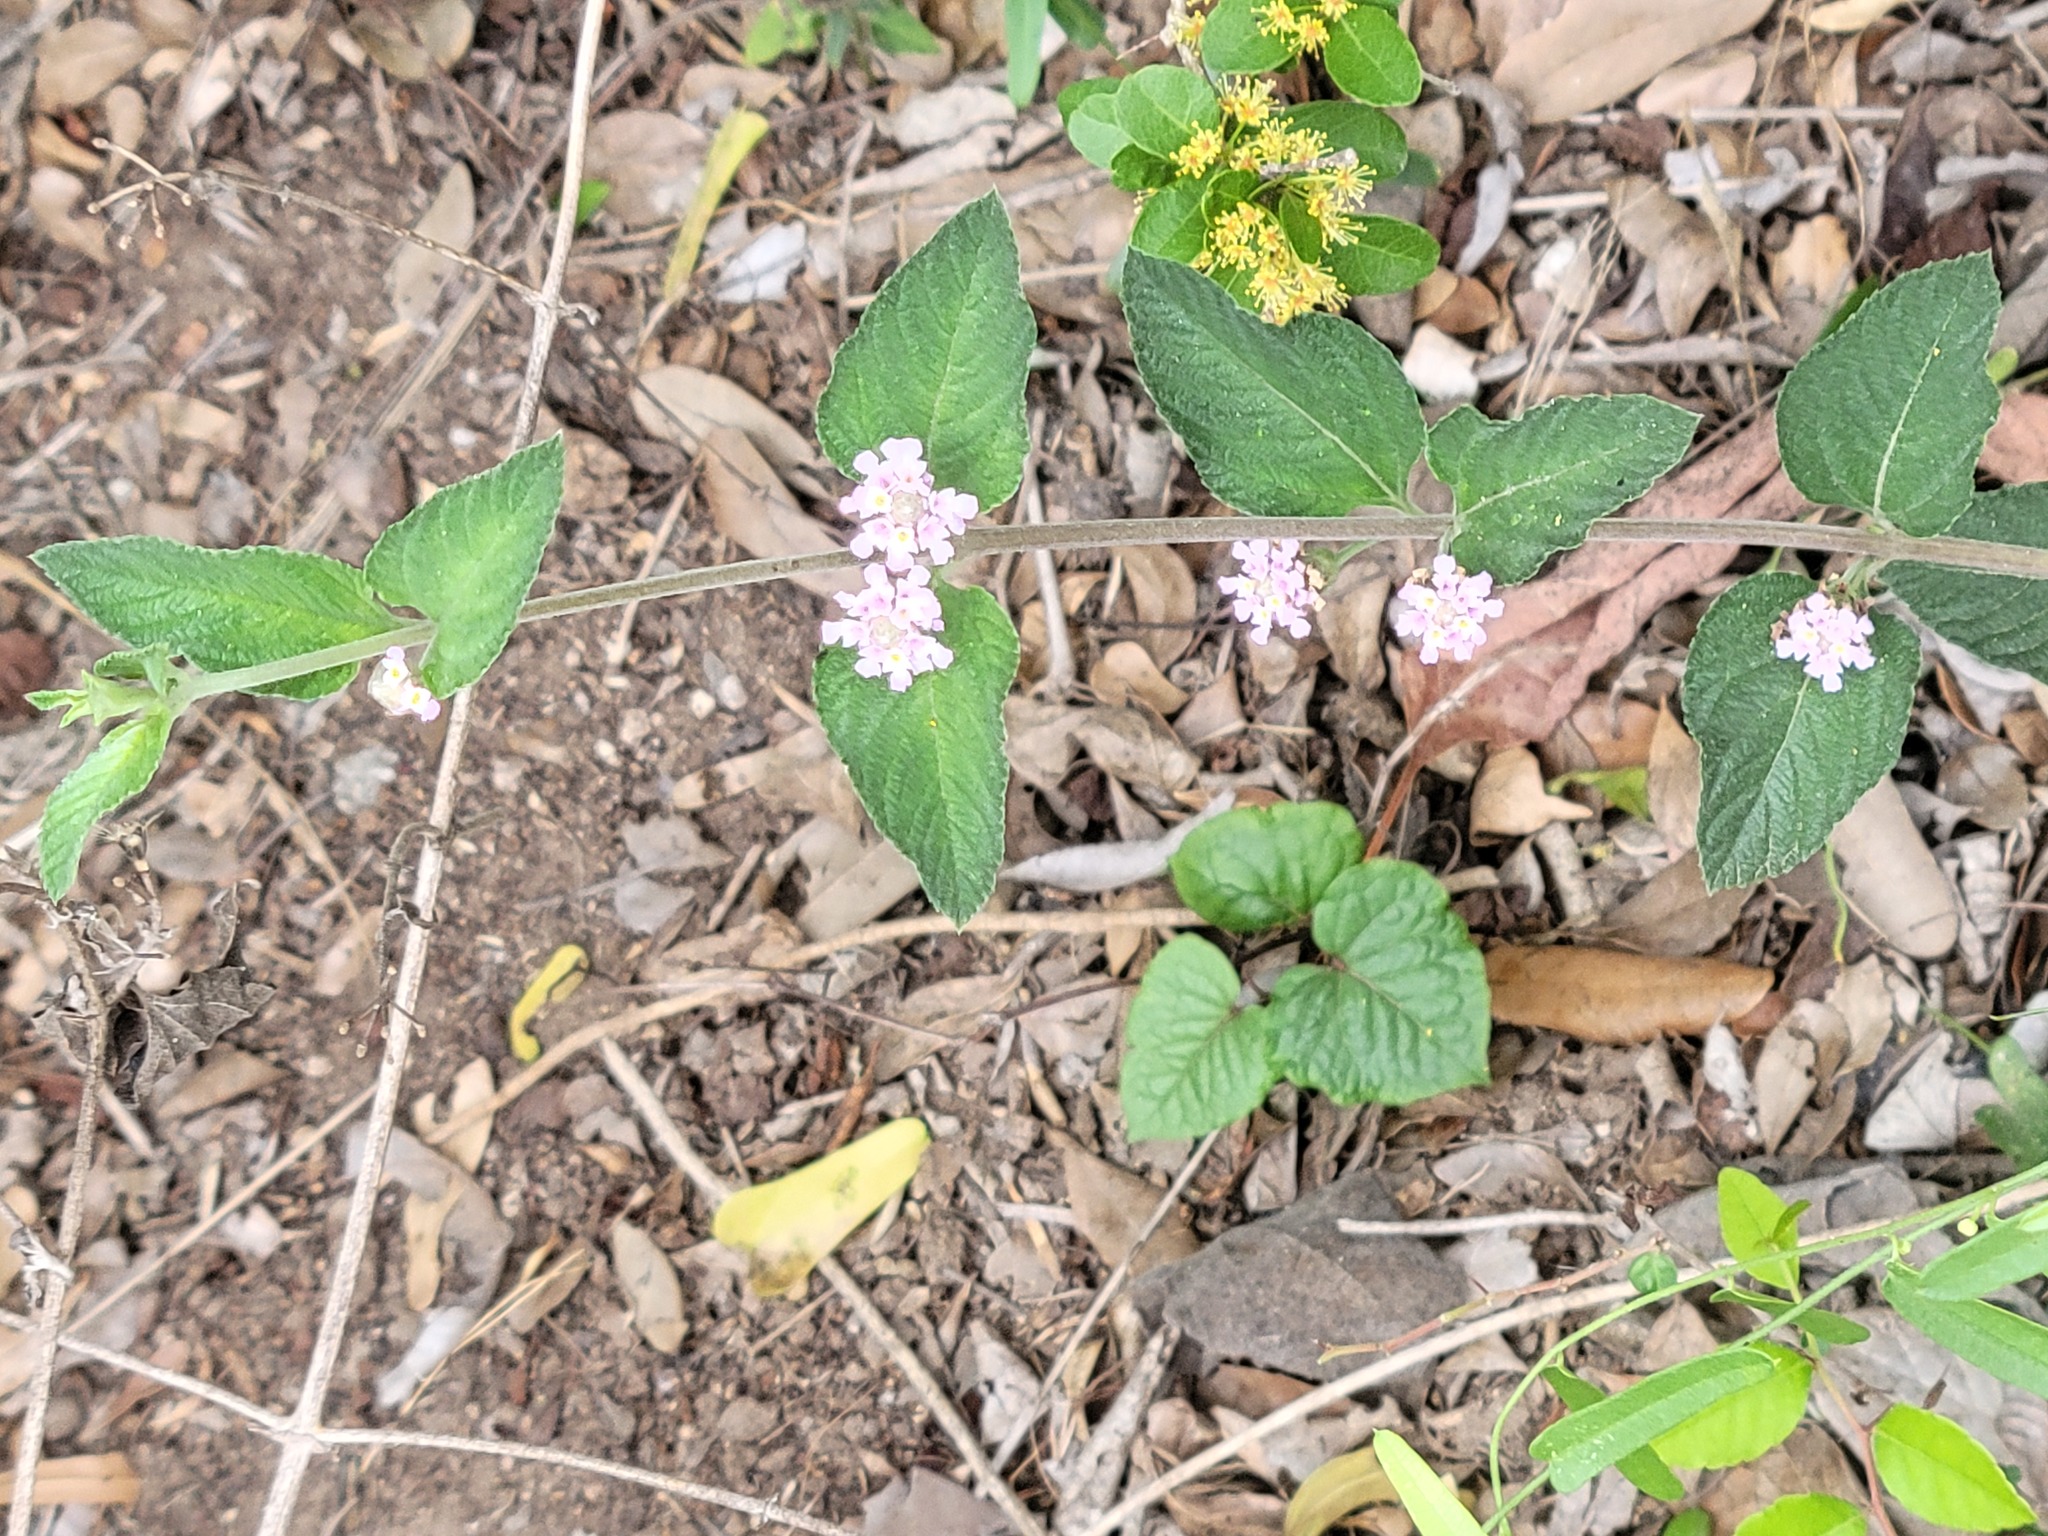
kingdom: Plantae
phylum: Tracheophyta
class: Magnoliopsida
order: Lamiales
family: Verbenaceae
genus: Lippia
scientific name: Lippia alba
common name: Bushy matgrass
